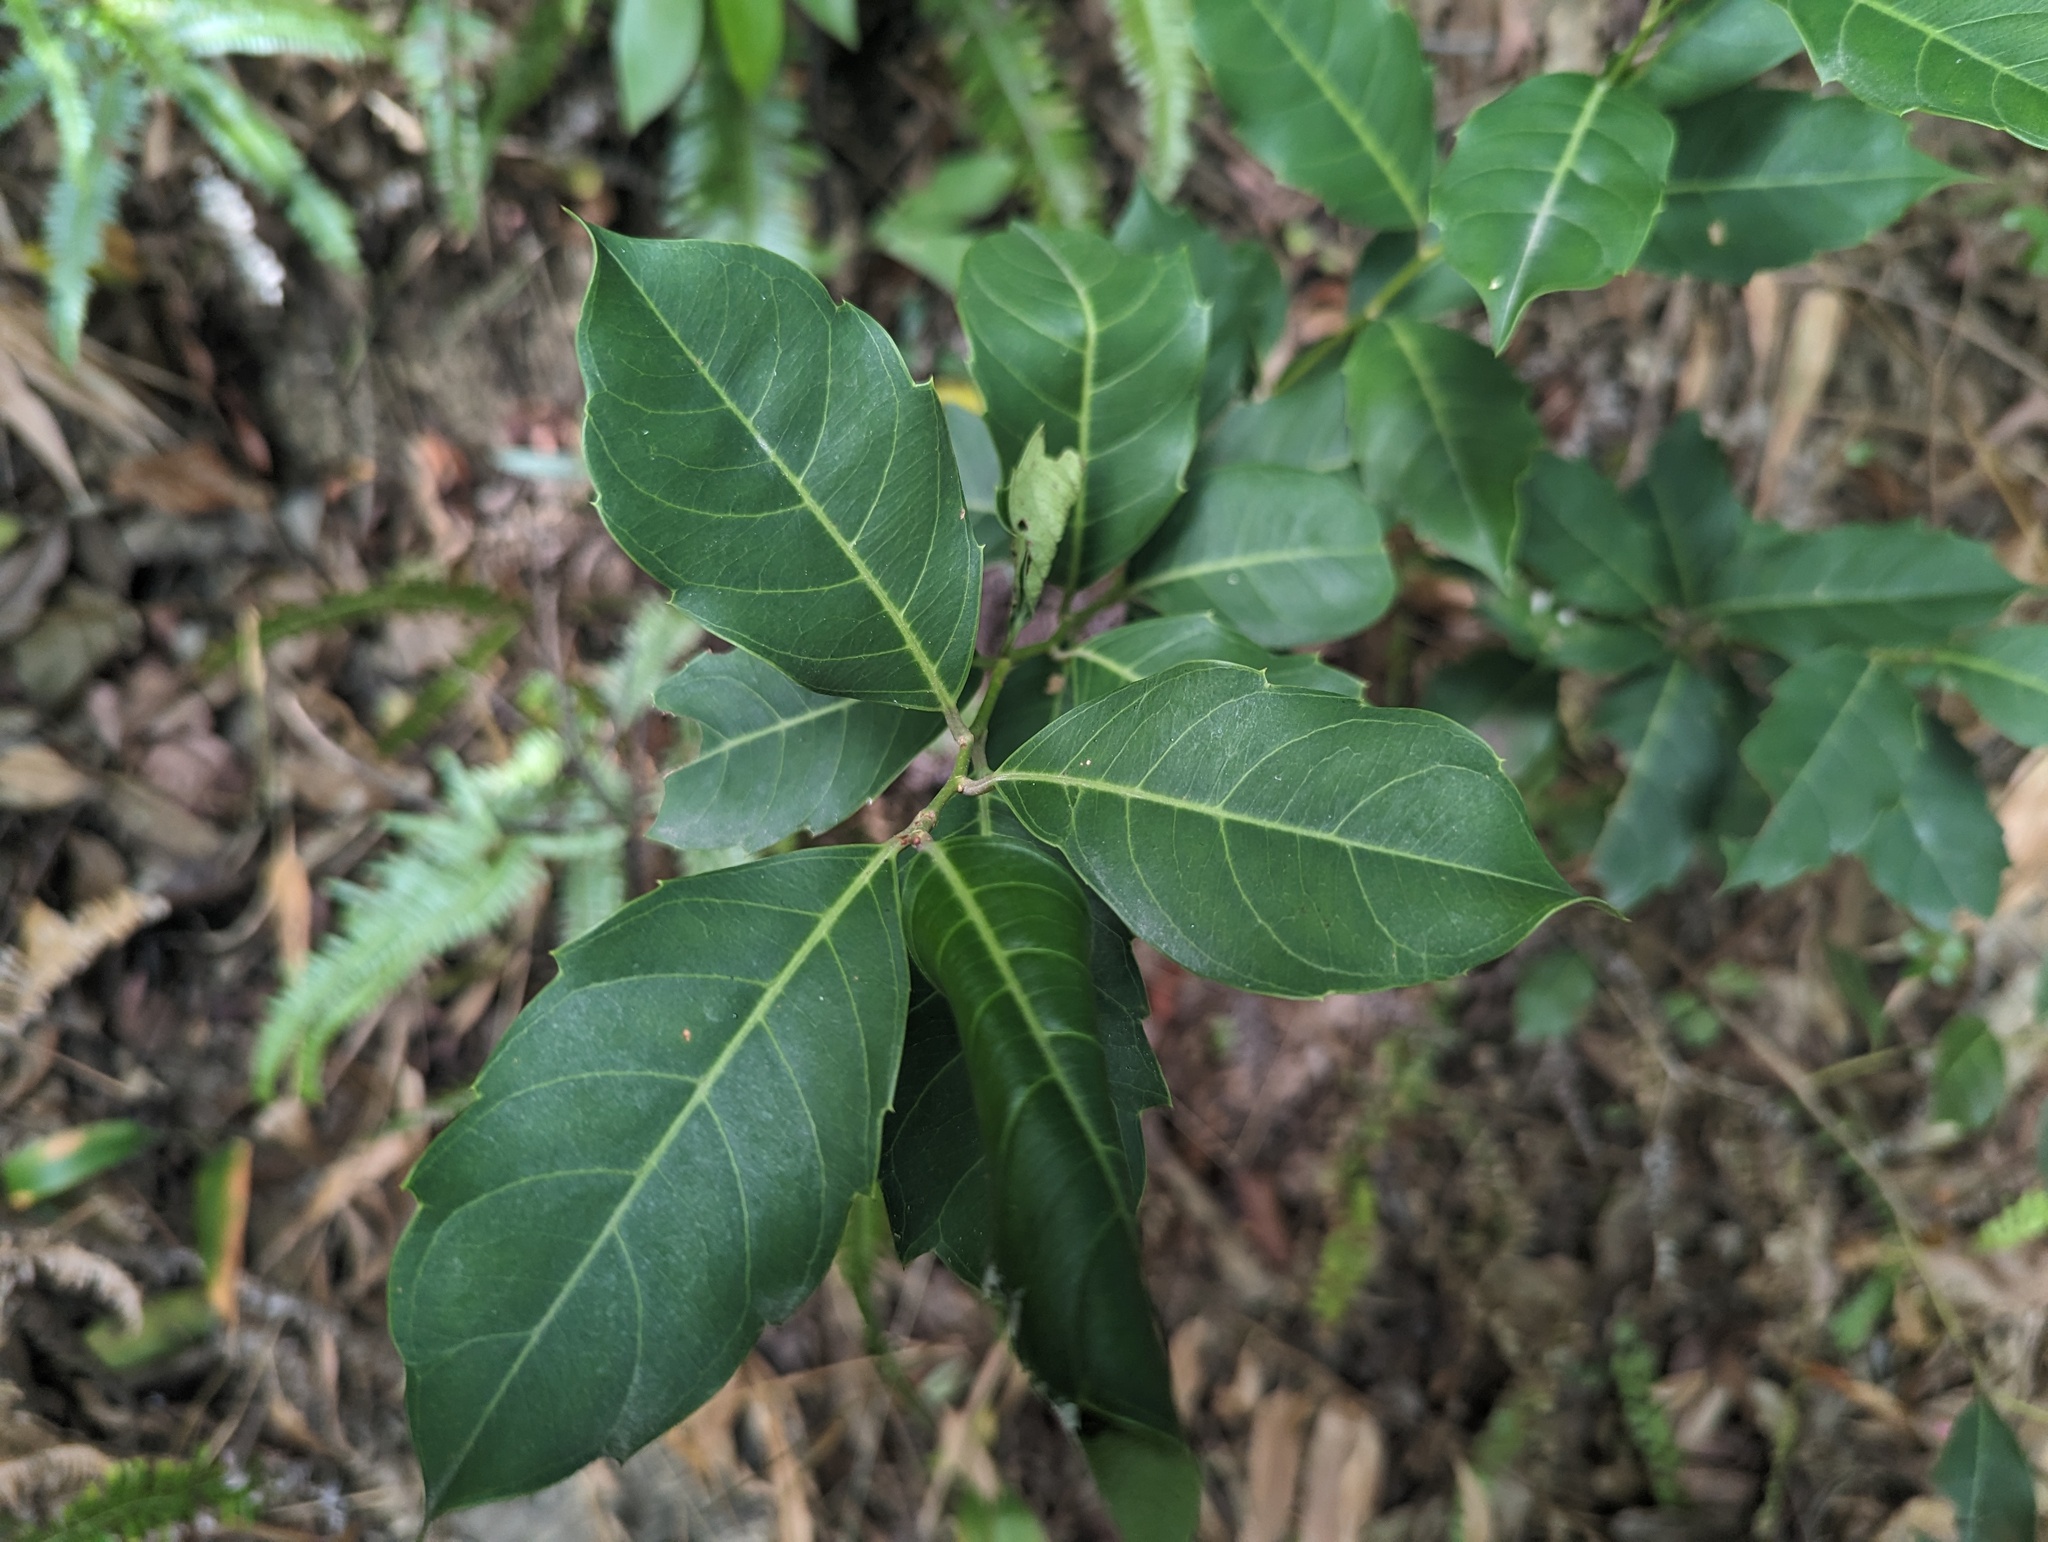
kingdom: Plantae
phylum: Tracheophyta
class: Magnoliopsida
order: Saxifragales
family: Iteaceae
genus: Itea
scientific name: Itea oldhamii
